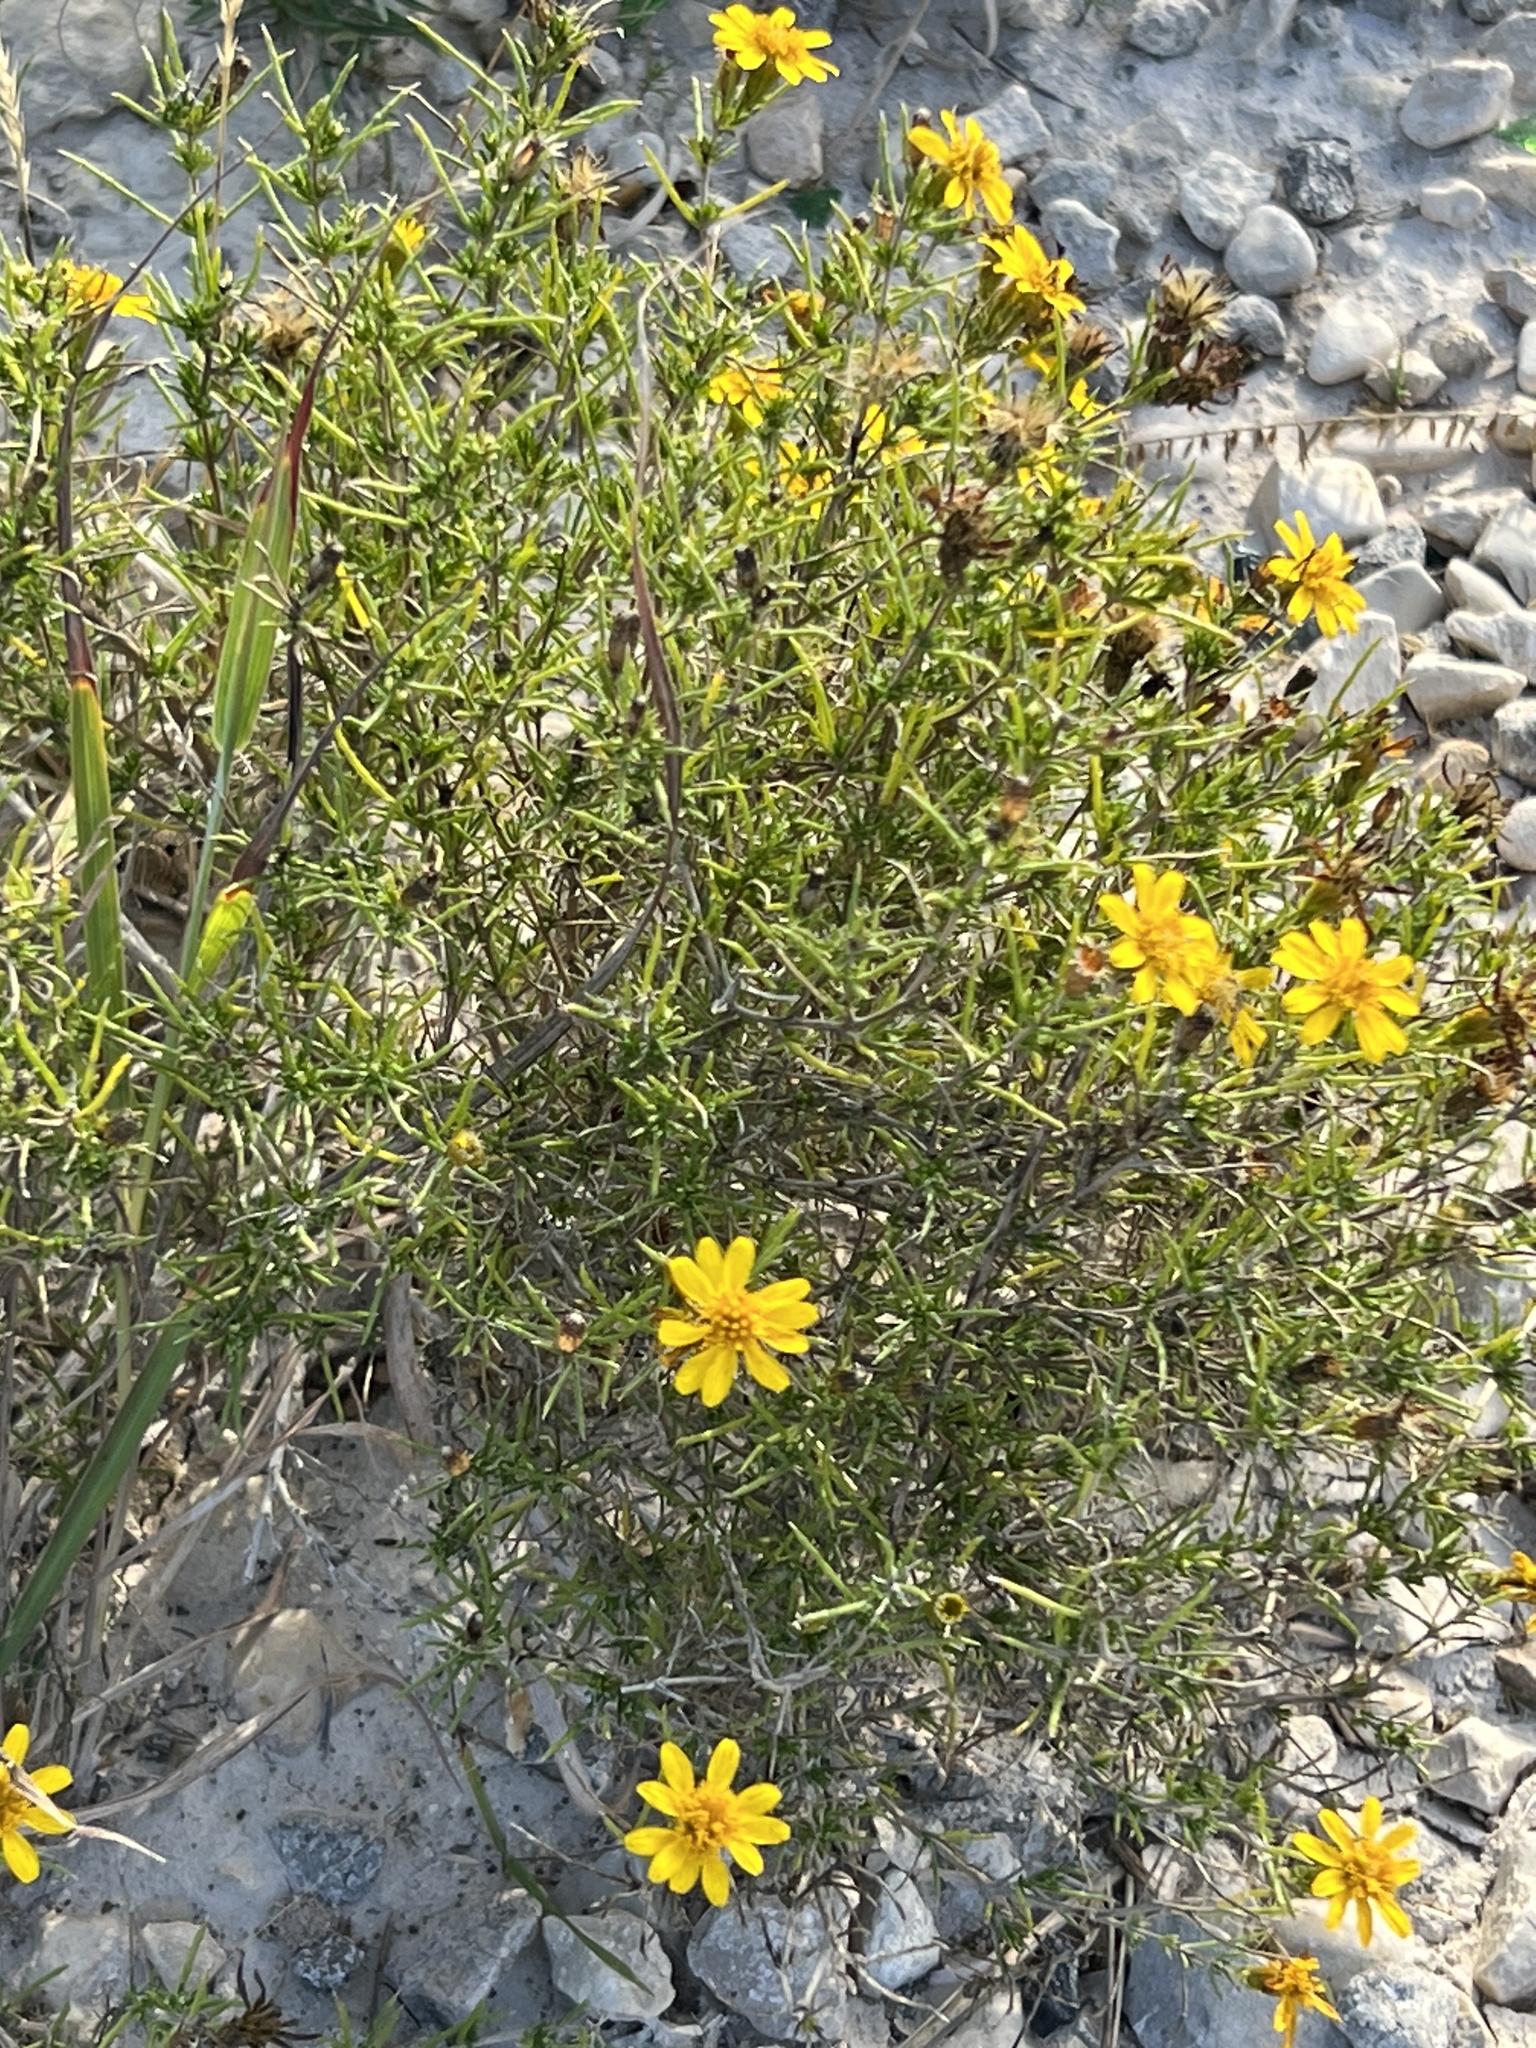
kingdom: Plantae
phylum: Tracheophyta
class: Magnoliopsida
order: Asterales
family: Asteraceae
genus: Thymophylla
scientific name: Thymophylla acerosa
